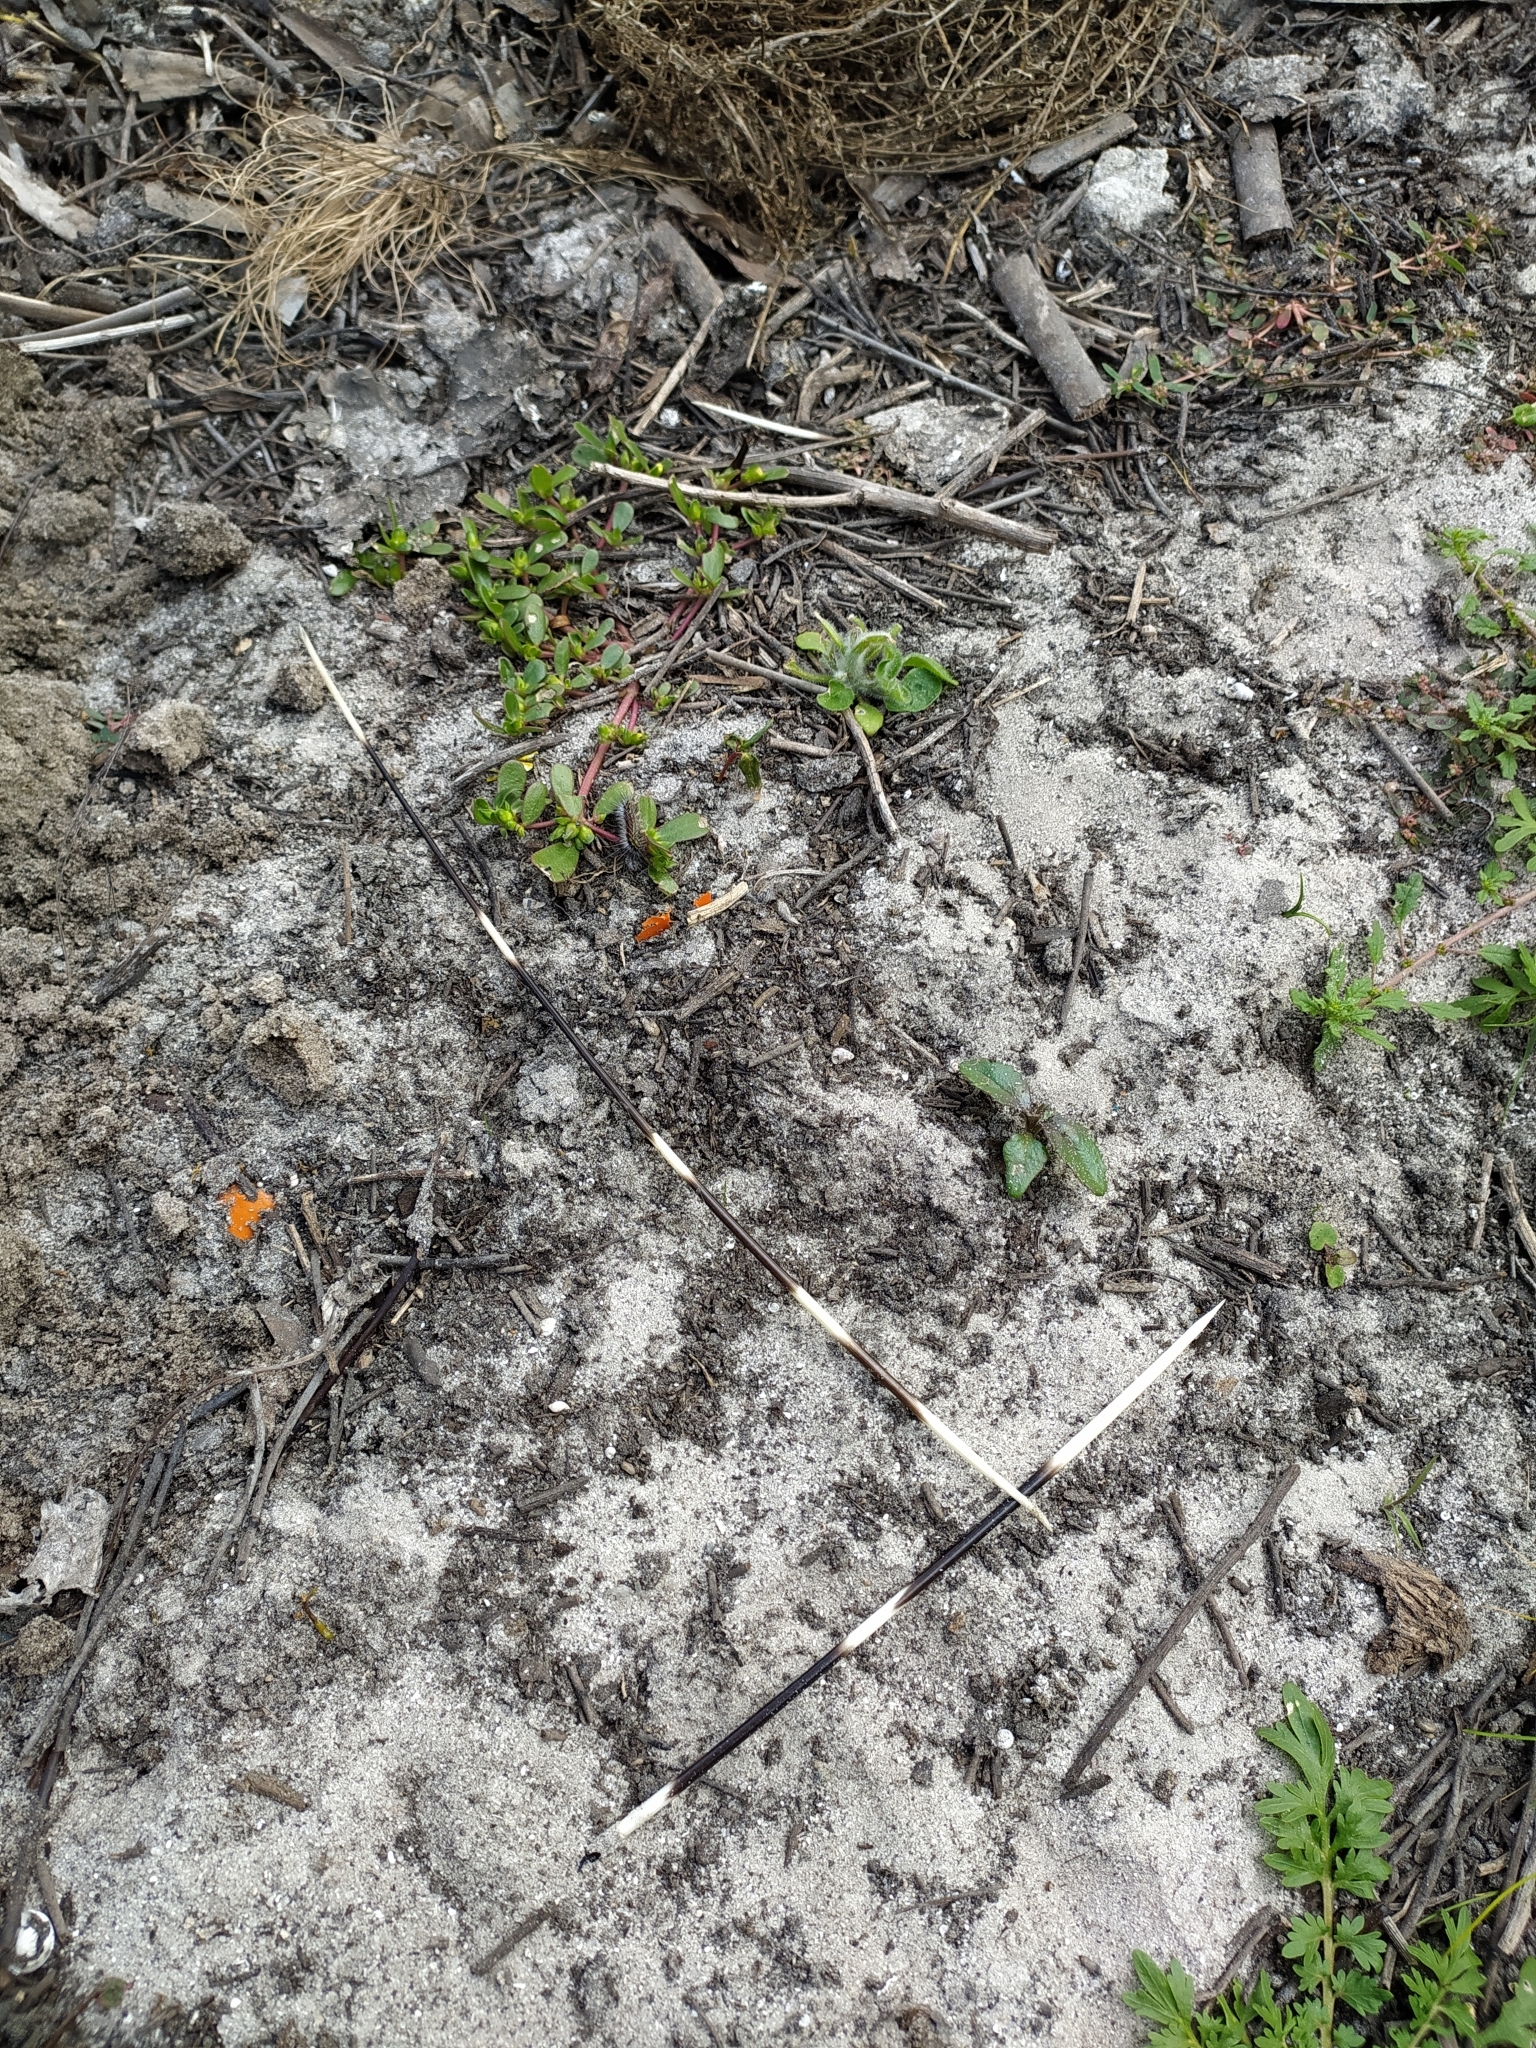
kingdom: Animalia
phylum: Chordata
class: Mammalia
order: Rodentia
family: Hystricidae
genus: Hystrix
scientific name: Hystrix africaeaustralis
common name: Cape porcupine
